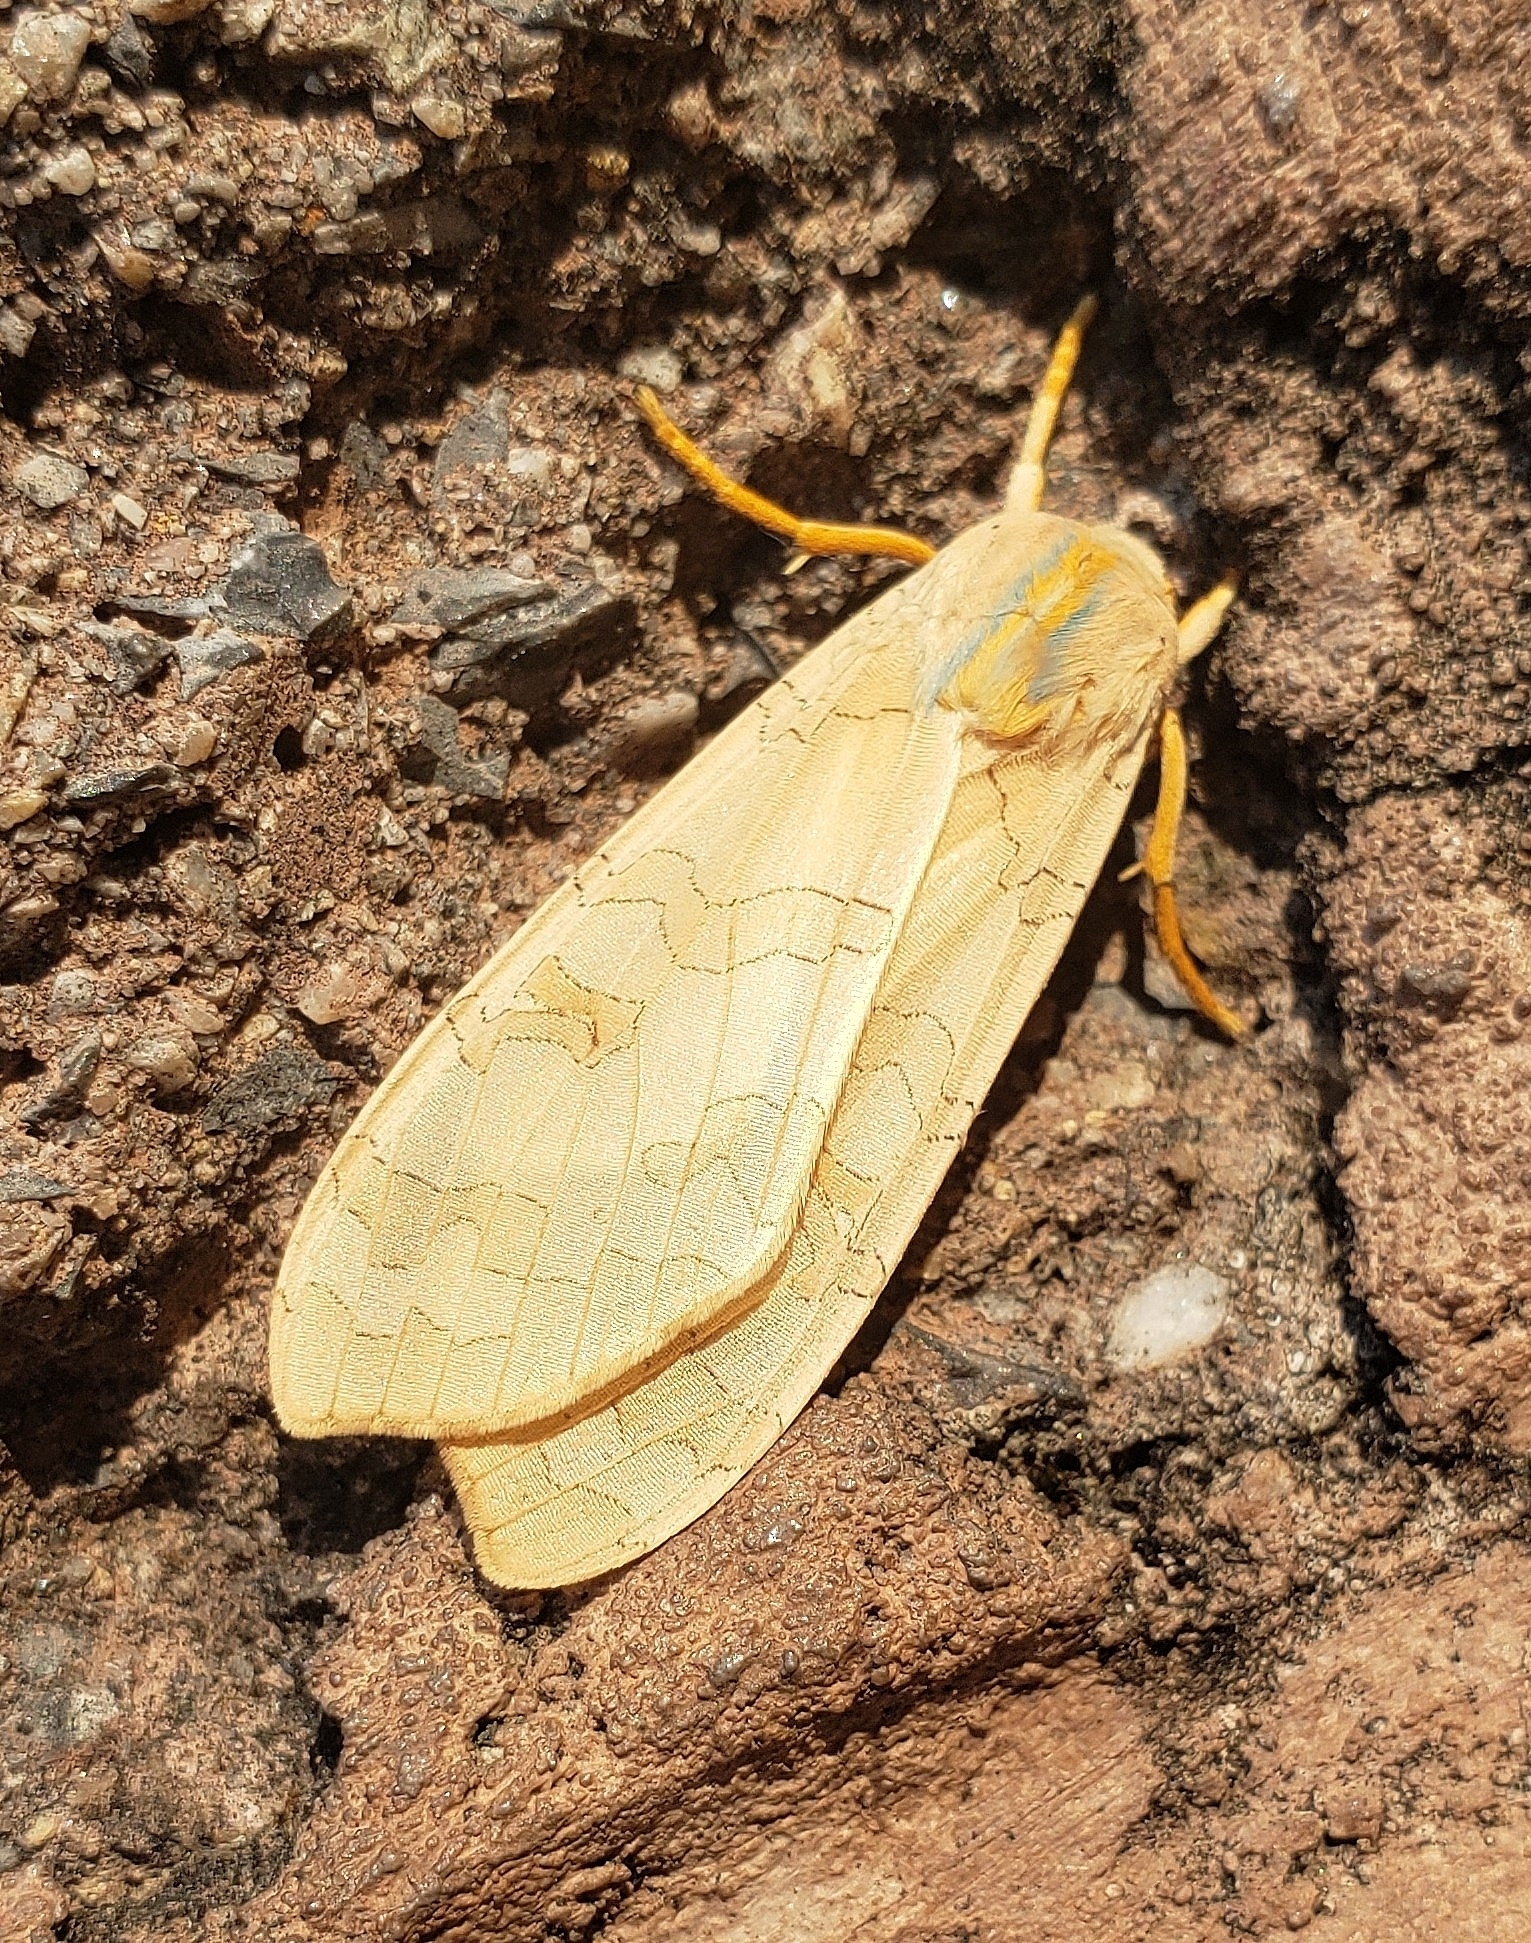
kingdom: Animalia
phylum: Arthropoda
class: Insecta
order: Lepidoptera
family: Erebidae
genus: Halysidota
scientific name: Halysidota
